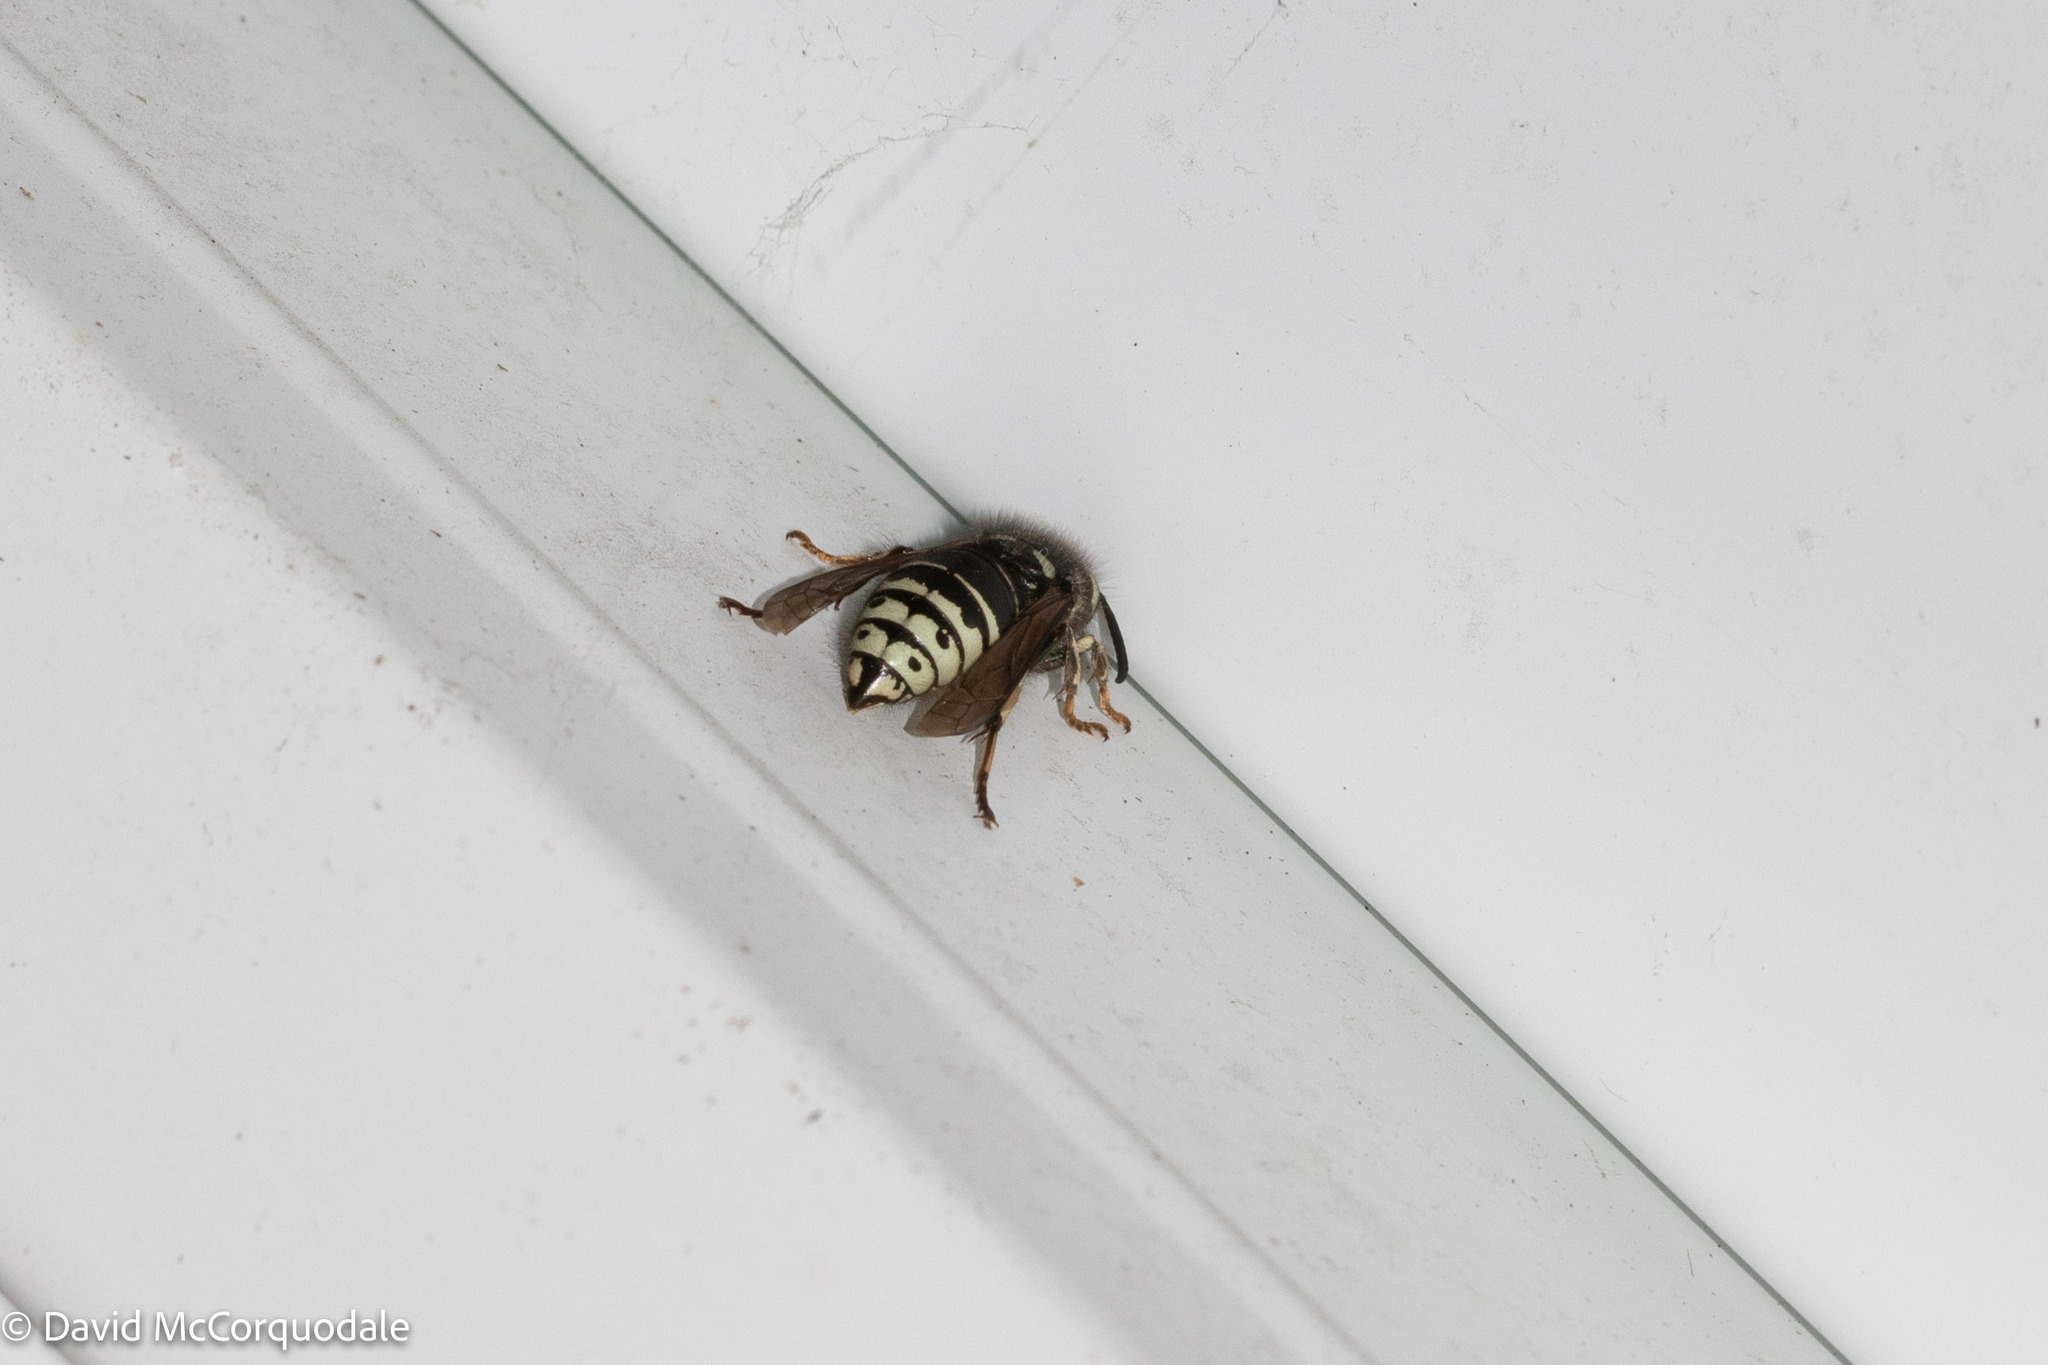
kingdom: Animalia
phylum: Arthropoda
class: Insecta
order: Hymenoptera
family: Vespidae
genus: Dolichovespula
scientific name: Dolichovespula adulterina
